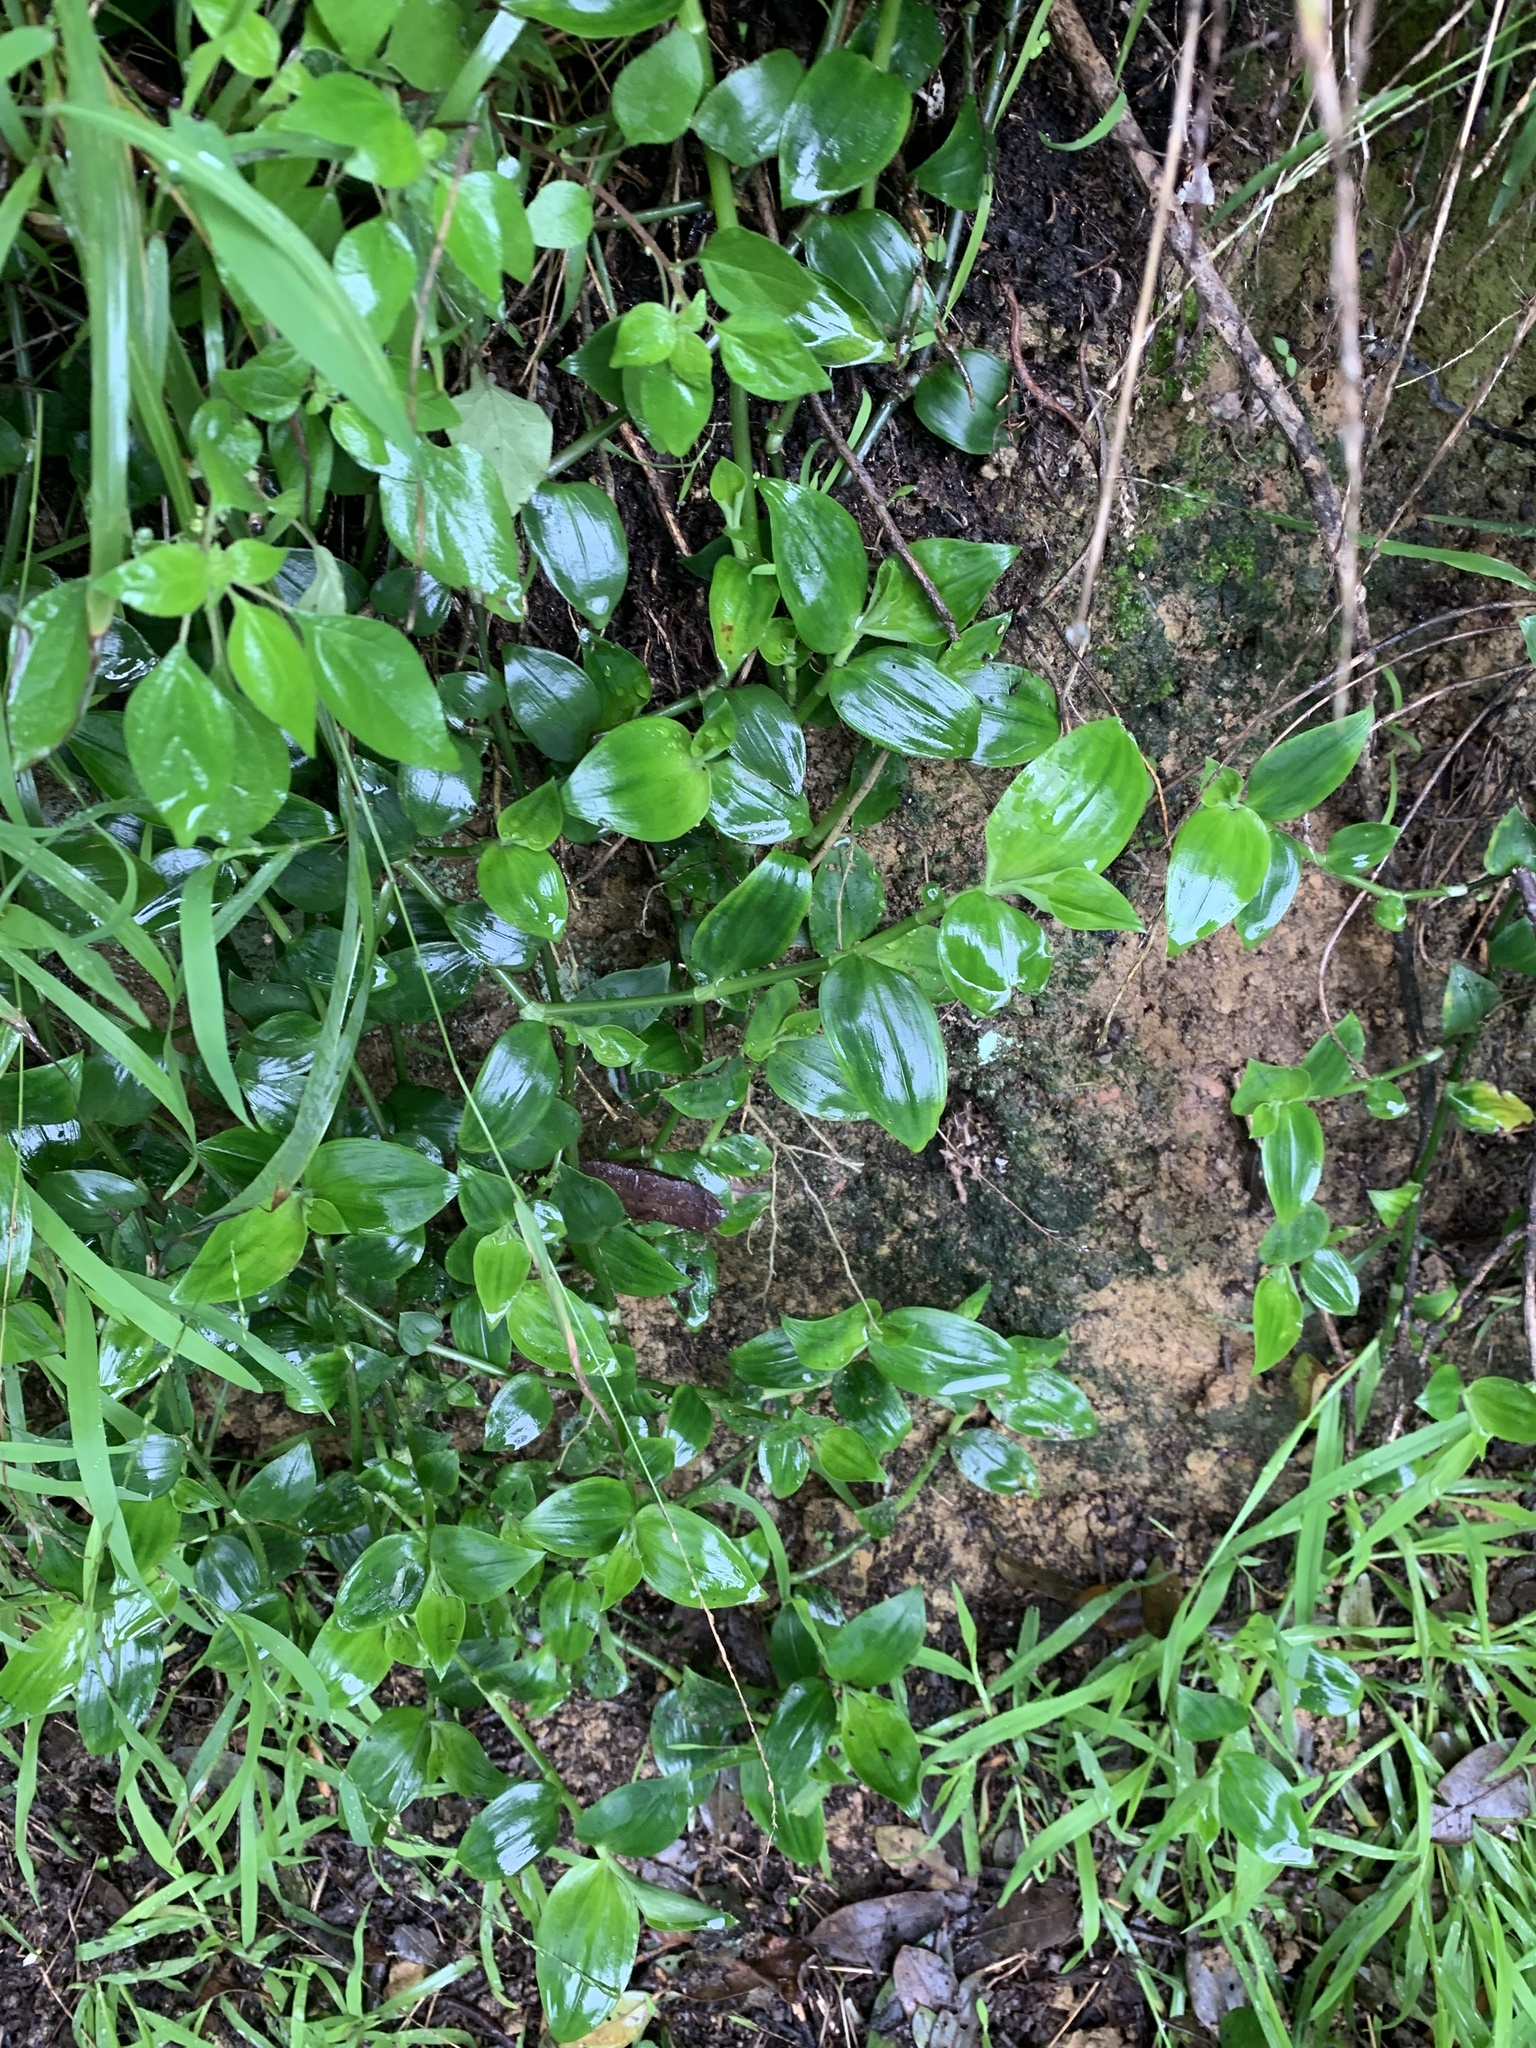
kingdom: Plantae
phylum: Tracheophyta
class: Liliopsida
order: Commelinales
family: Commelinaceae
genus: Tradescantia
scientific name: Tradescantia fluminensis
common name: Wandering-jew
